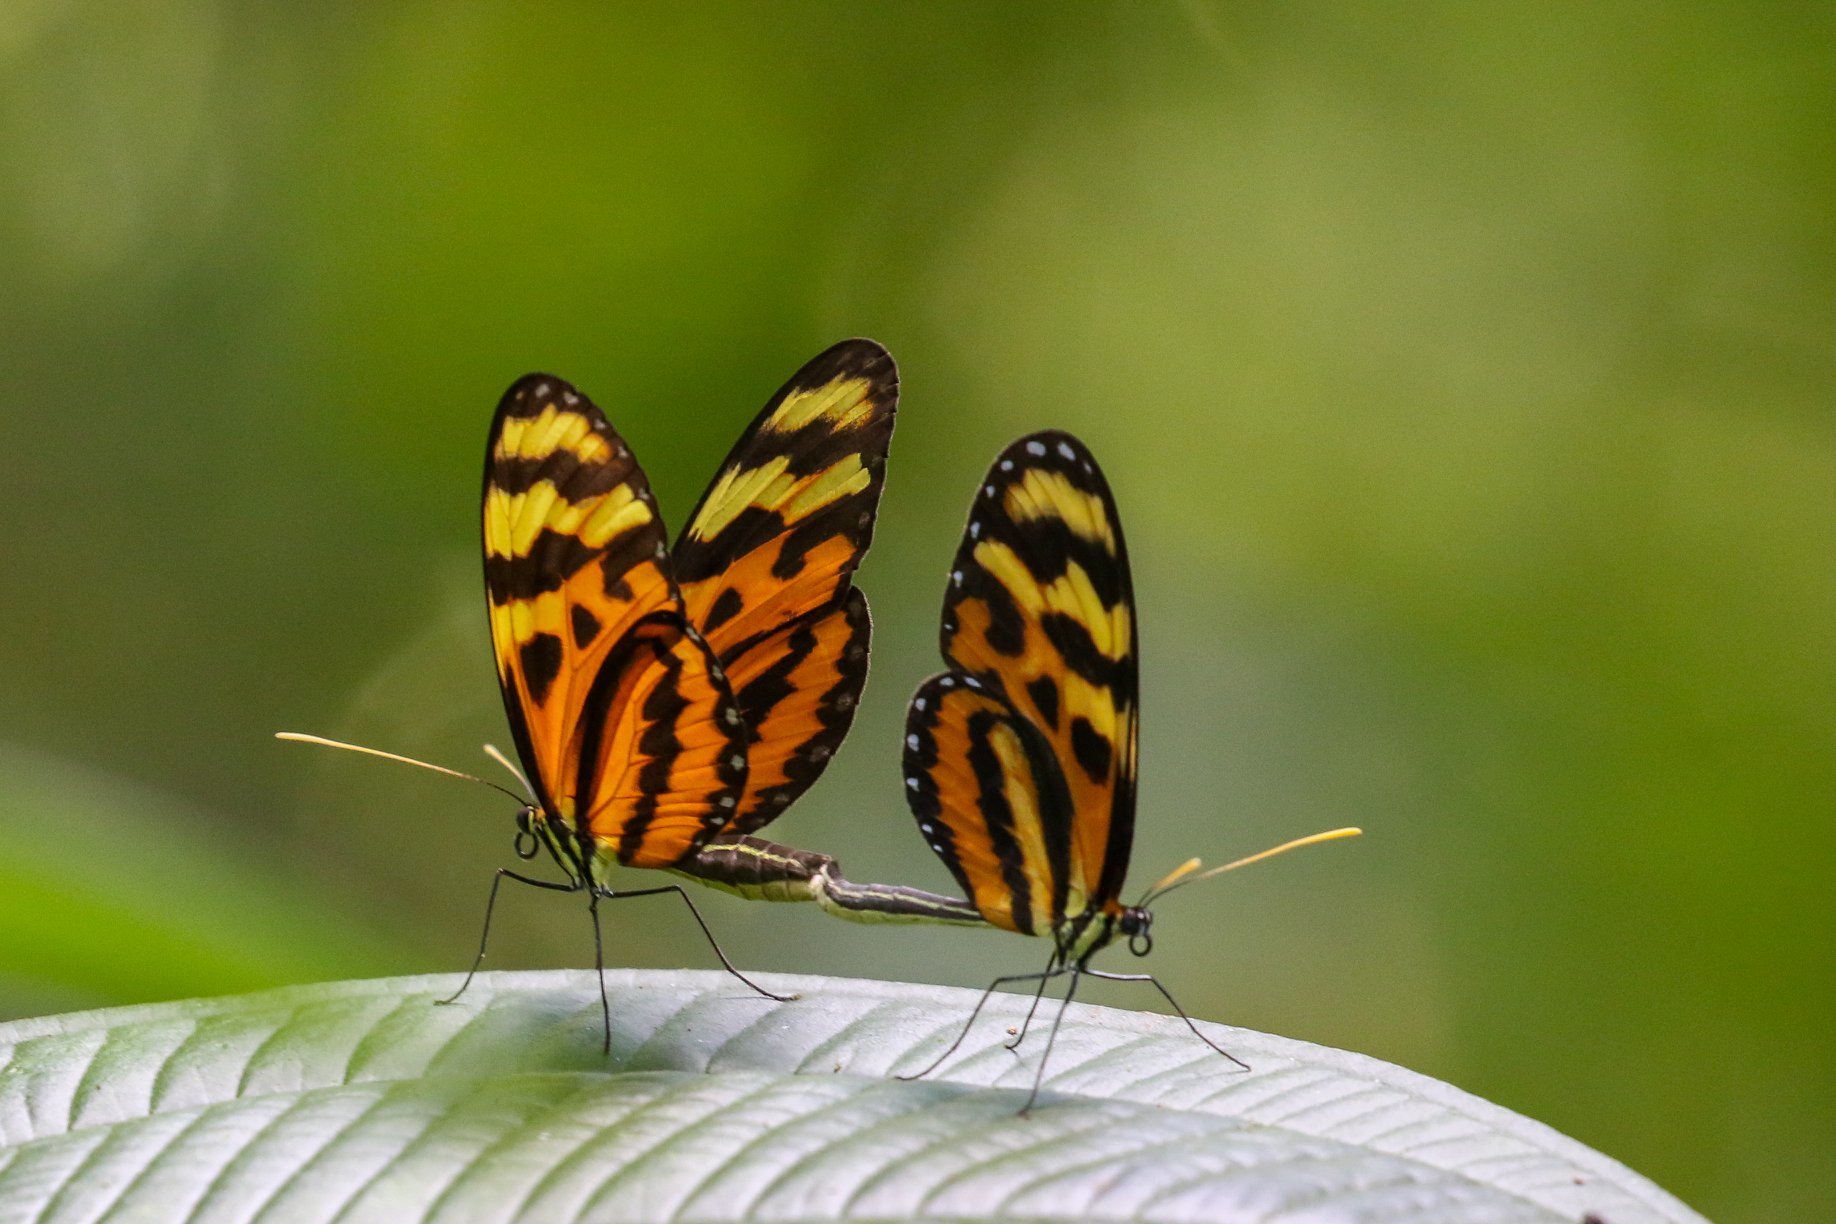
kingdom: Animalia
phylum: Arthropoda
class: Insecta
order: Lepidoptera
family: Nymphalidae
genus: Mechanitis
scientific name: Mechanitis lysimnia
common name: Lysimnia tigerwing
